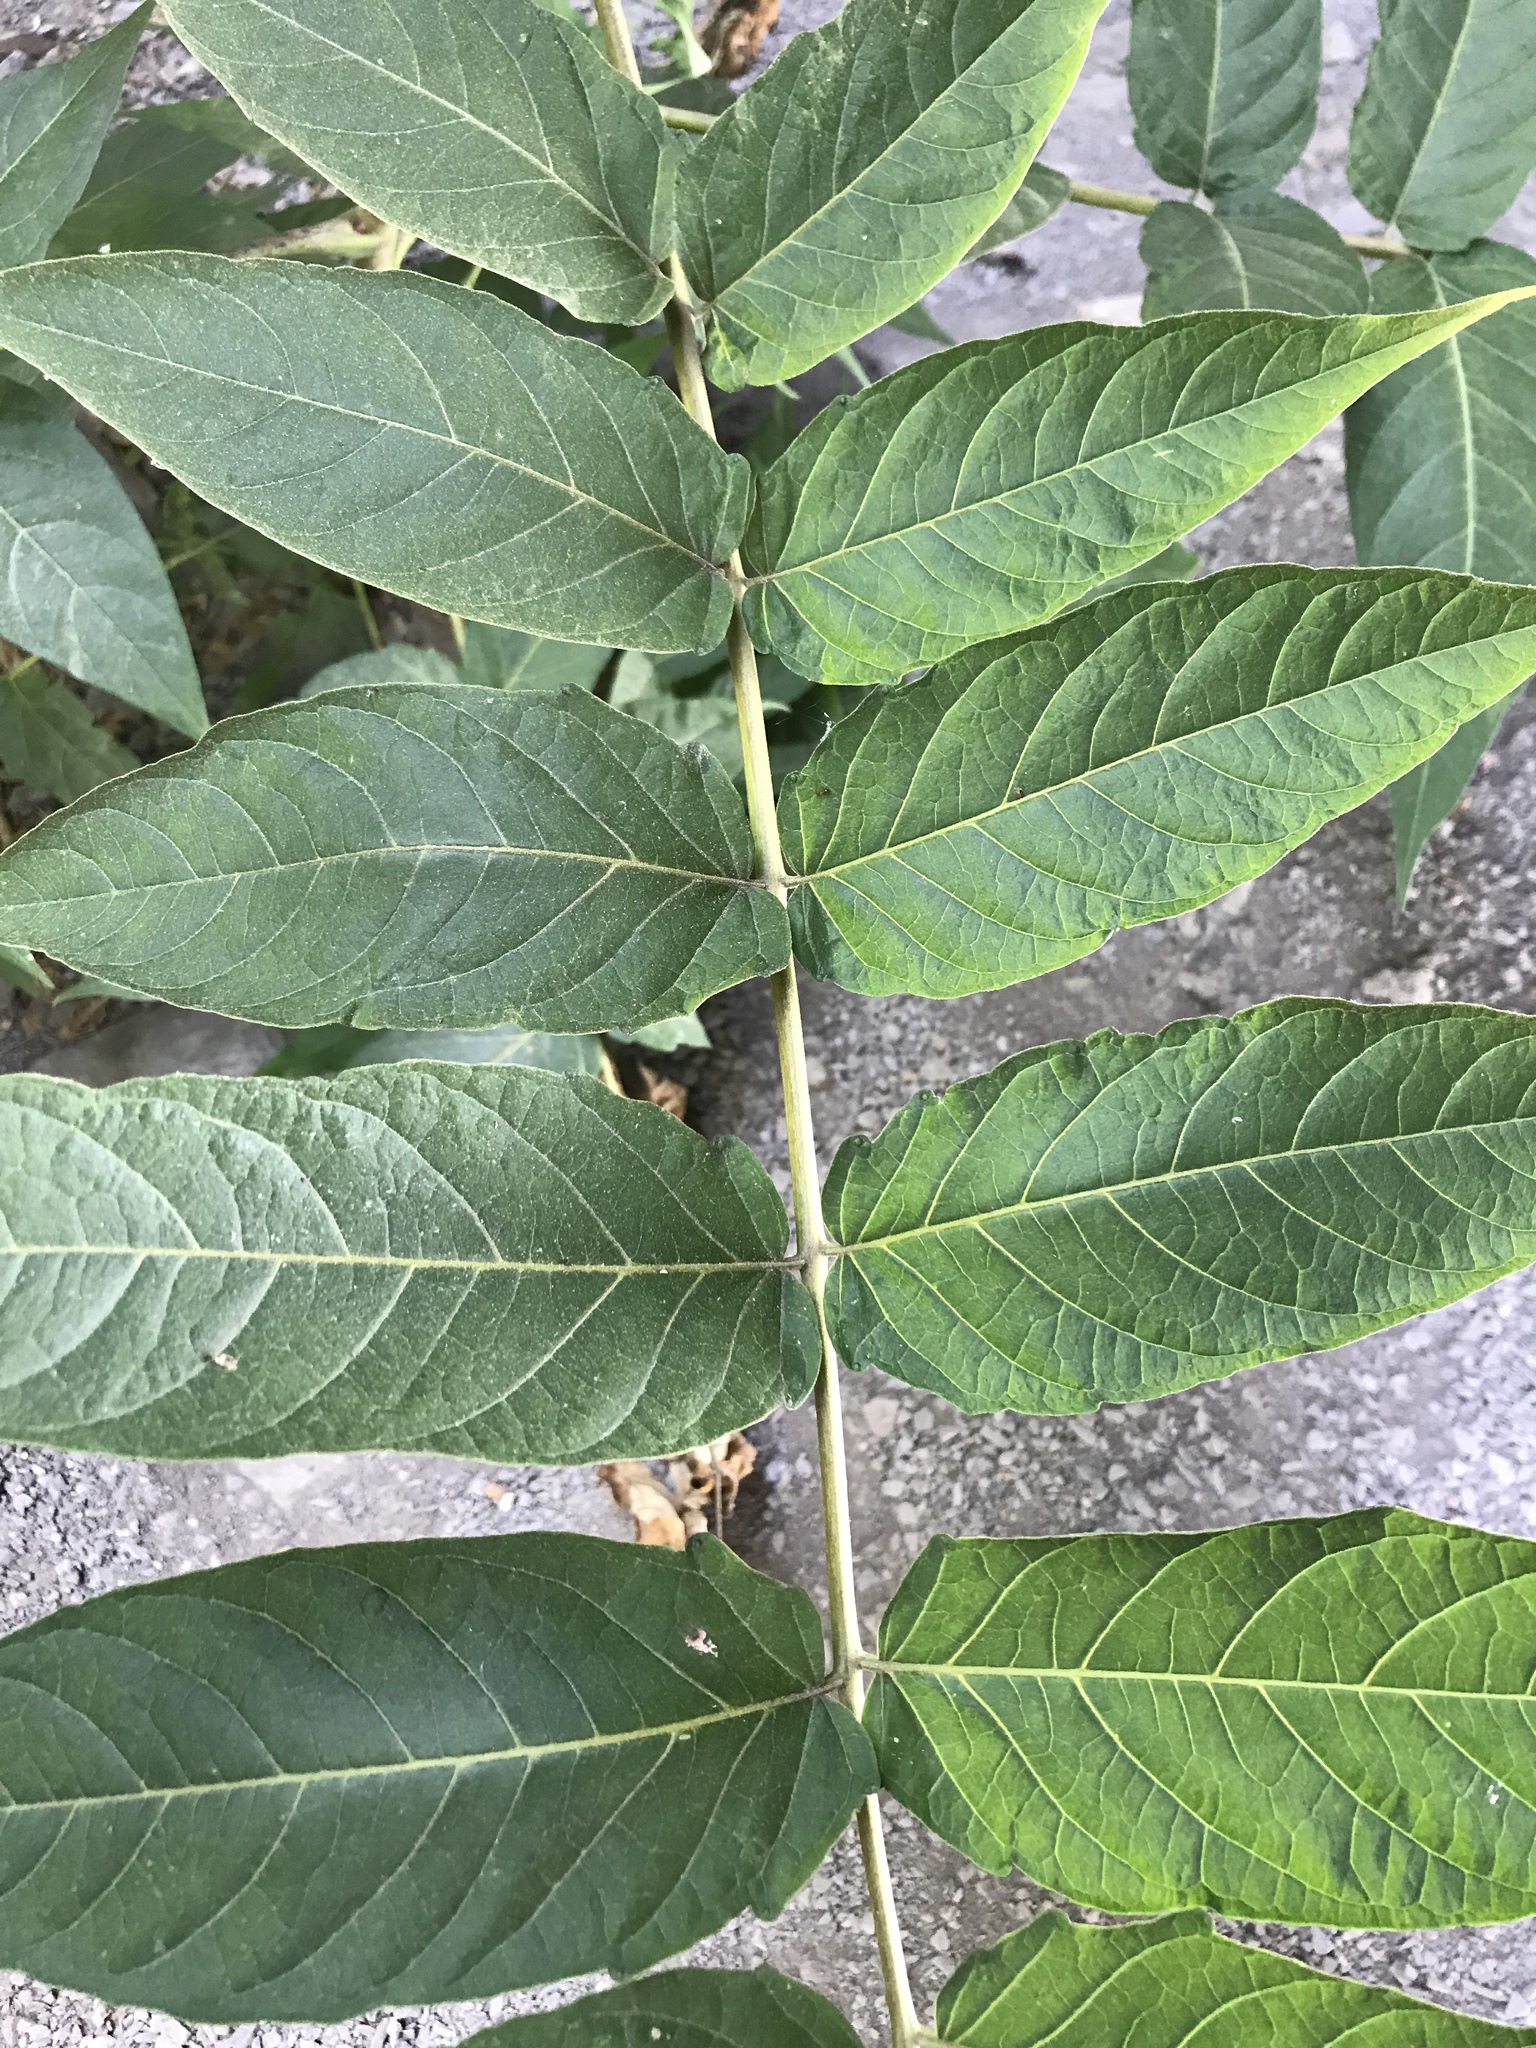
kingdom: Plantae
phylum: Tracheophyta
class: Magnoliopsida
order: Sapindales
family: Simaroubaceae
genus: Ailanthus
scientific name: Ailanthus altissima
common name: Tree-of-heaven
